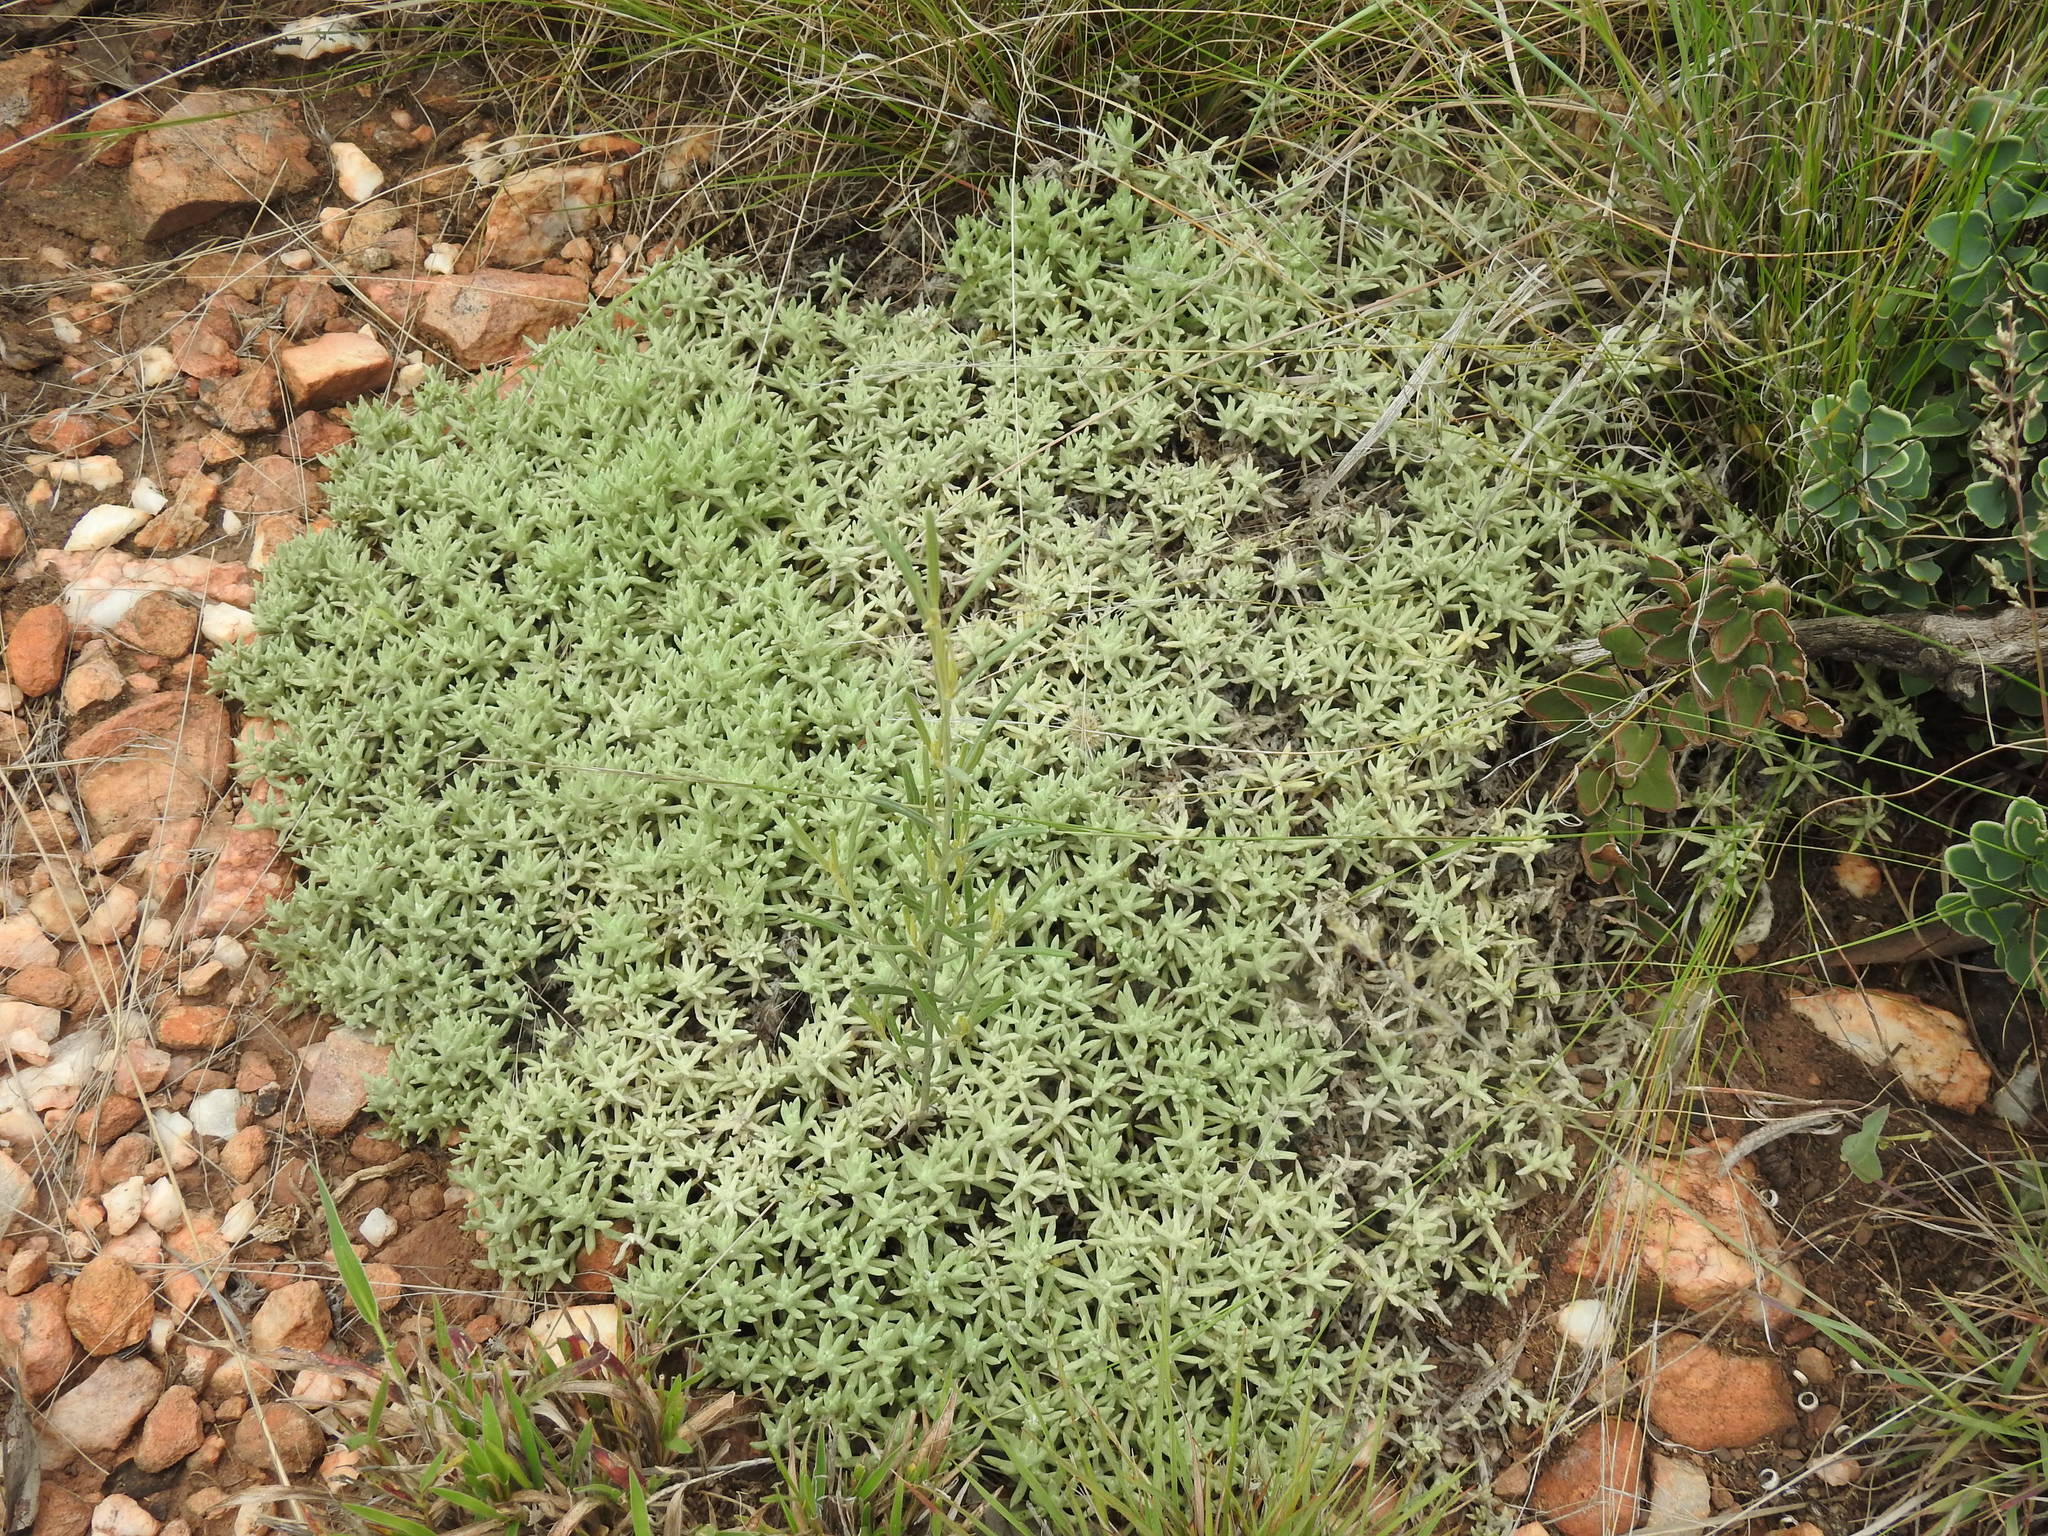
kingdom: Plantae
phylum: Tracheophyta
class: Magnoliopsida
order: Asterales
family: Asteraceae
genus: Helichrysum
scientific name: Helichrysum caespititium
